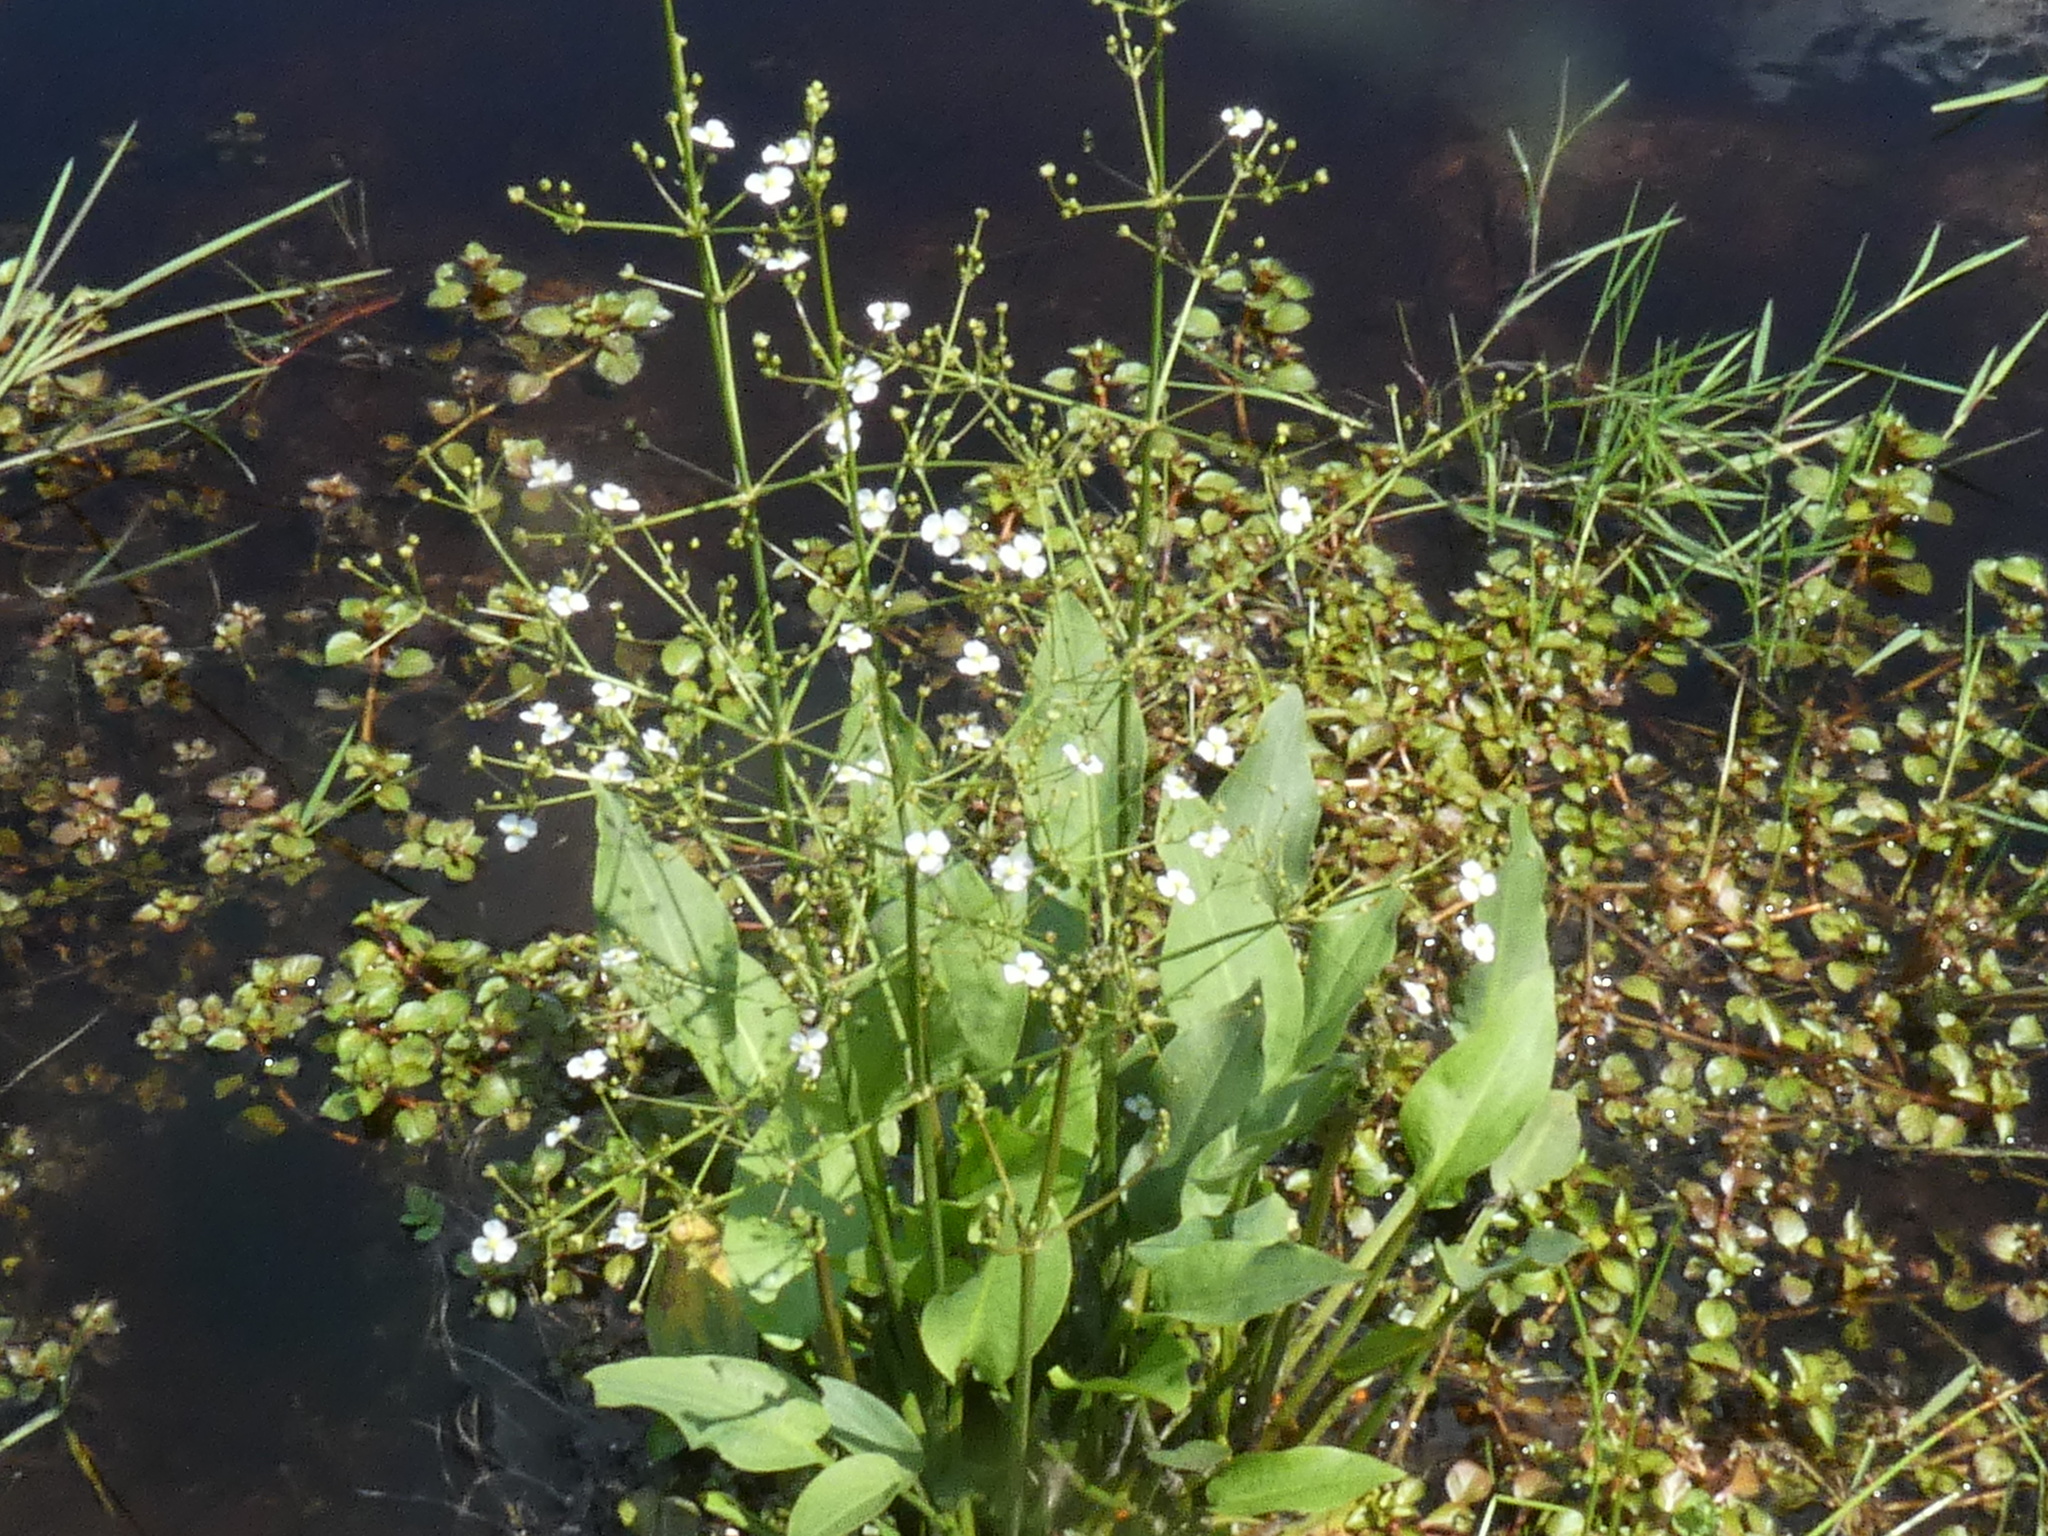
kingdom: Plantae
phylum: Tracheophyta
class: Liliopsida
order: Alismatales
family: Alismataceae
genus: Alisma
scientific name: Alisma plantago-aquatica
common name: Water-plantain
